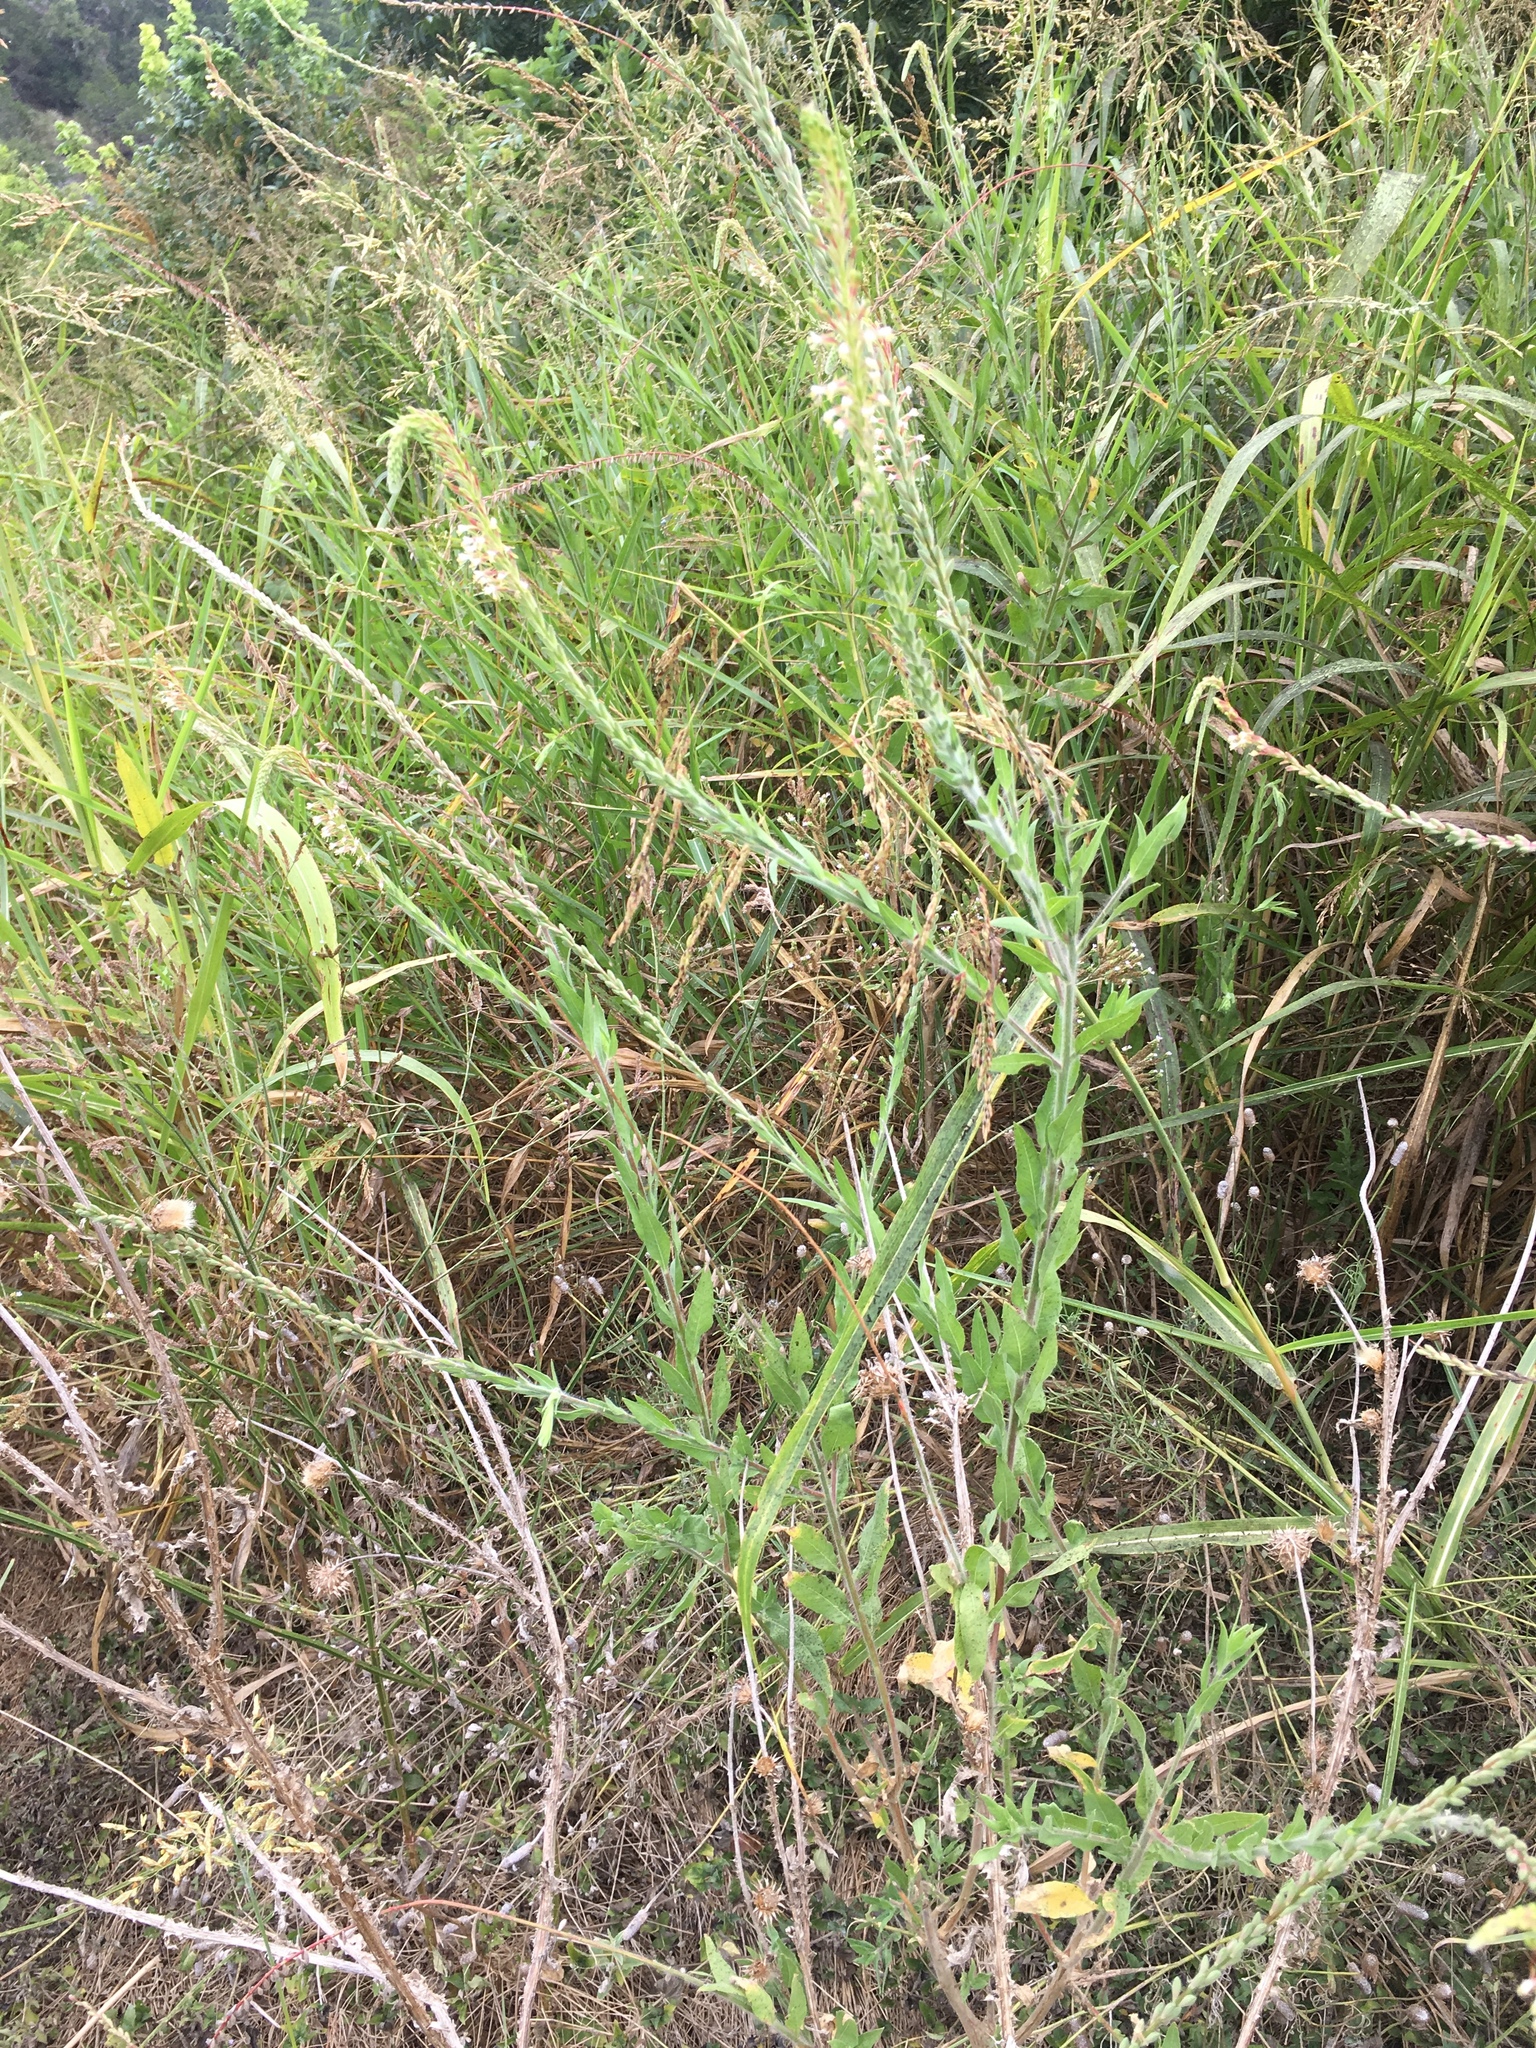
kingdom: Plantae
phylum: Tracheophyta
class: Magnoliopsida
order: Myrtales
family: Onagraceae
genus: Oenothera
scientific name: Oenothera curtiflora
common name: Velvetweed
